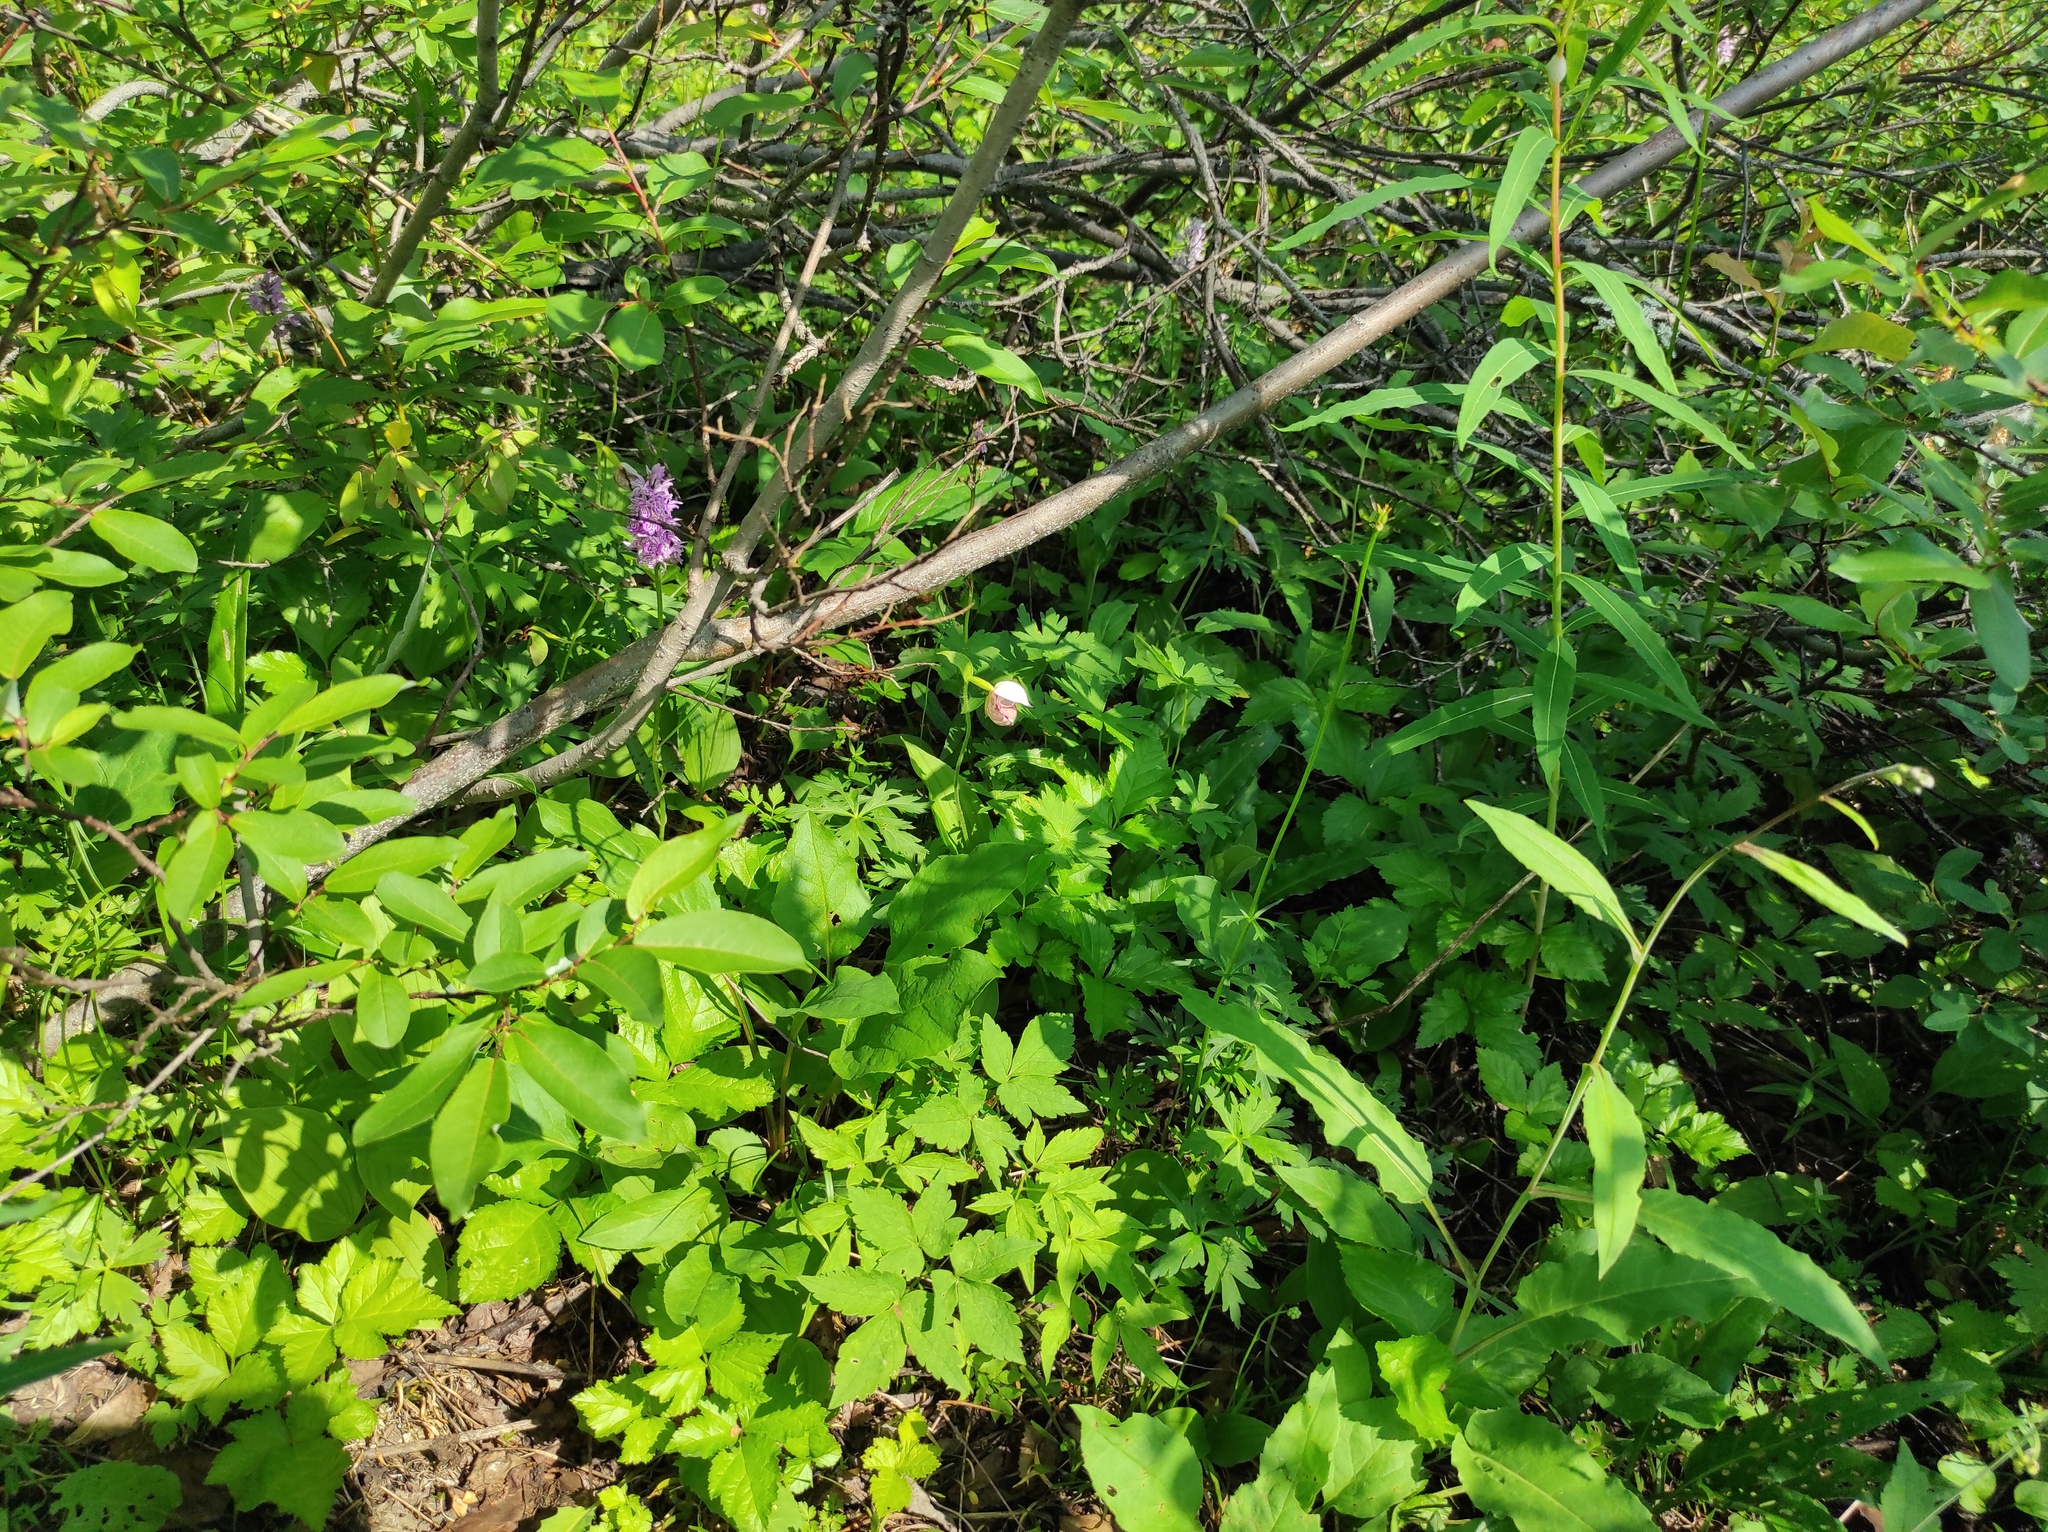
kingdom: Plantae
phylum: Tracheophyta
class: Liliopsida
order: Asparagales
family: Orchidaceae
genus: Cypripedium
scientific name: Cypripedium guttatum
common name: Pink lady slipper
